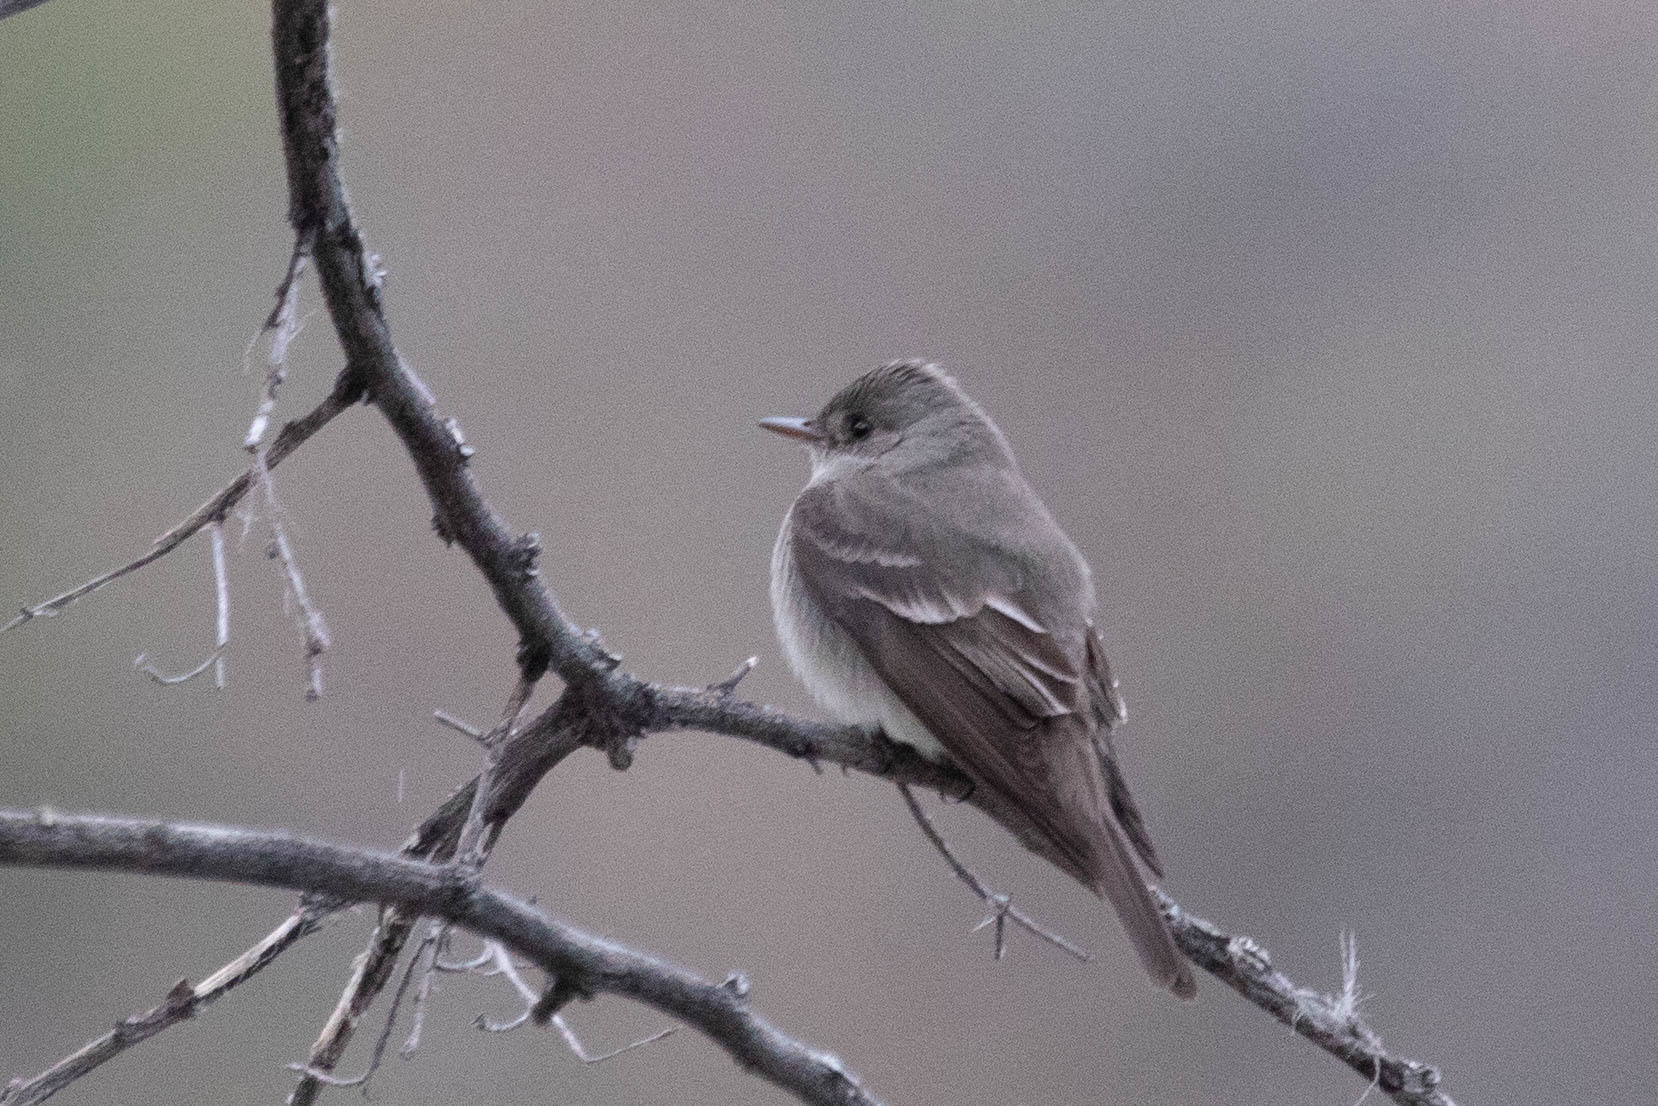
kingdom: Animalia
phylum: Chordata
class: Aves
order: Passeriformes
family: Tyrannidae
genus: Contopus
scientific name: Contopus sordidulus
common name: Western wood-pewee
